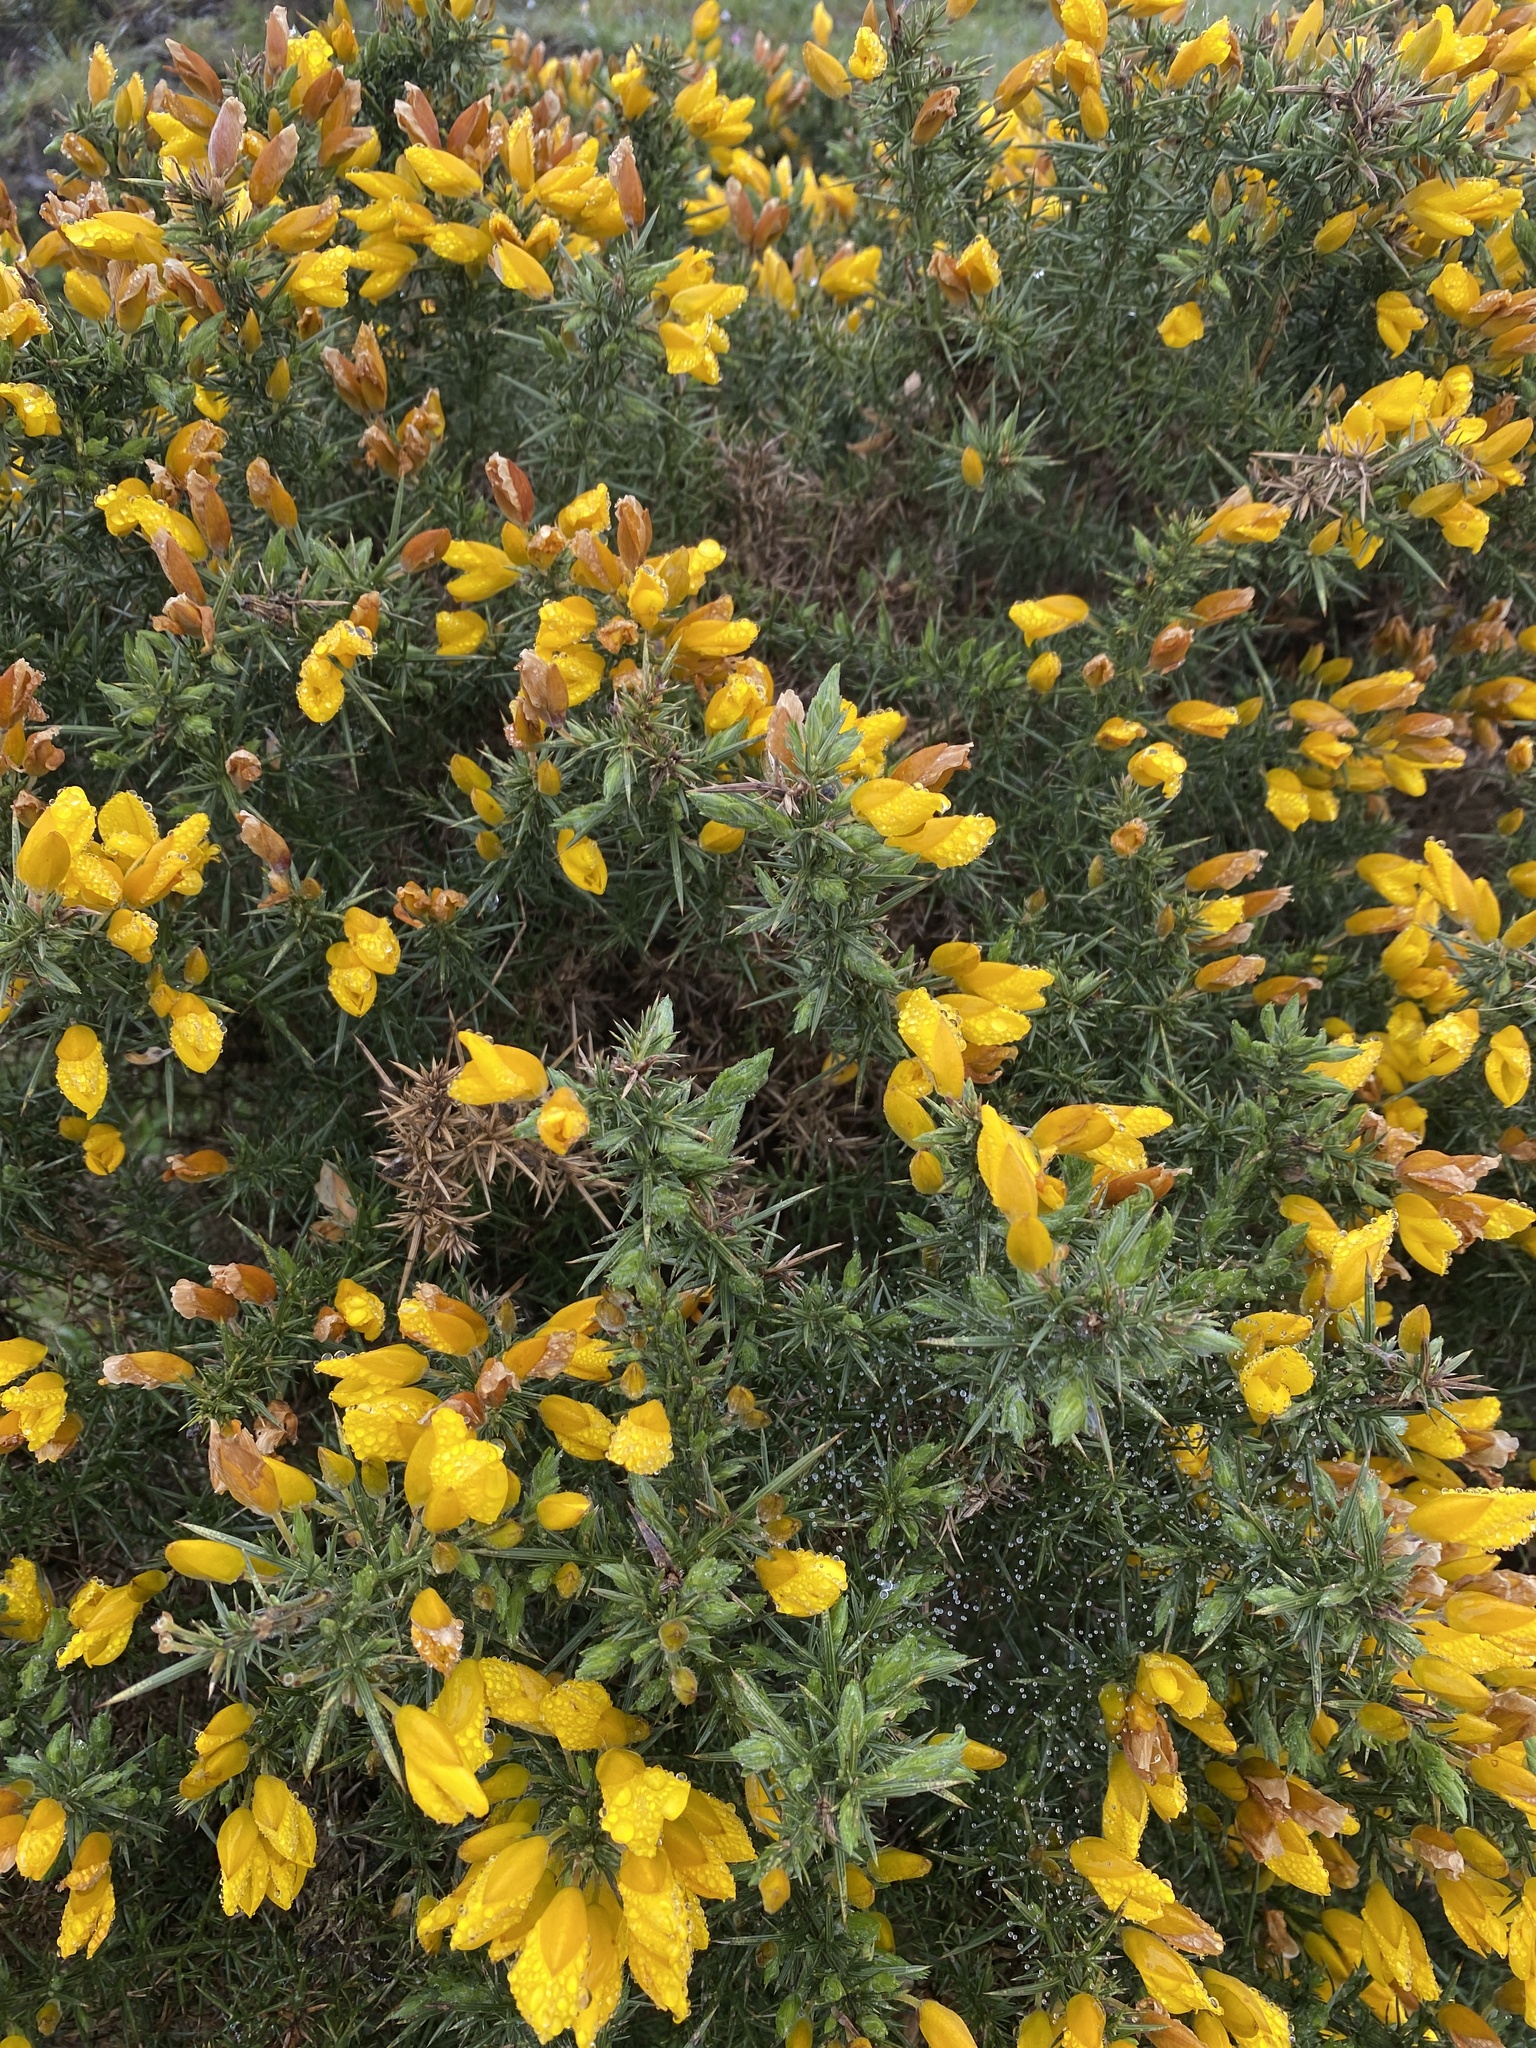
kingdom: Plantae
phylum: Tracheophyta
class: Magnoliopsida
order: Fabales
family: Fabaceae
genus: Ulex
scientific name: Ulex europaeus
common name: Common gorse
